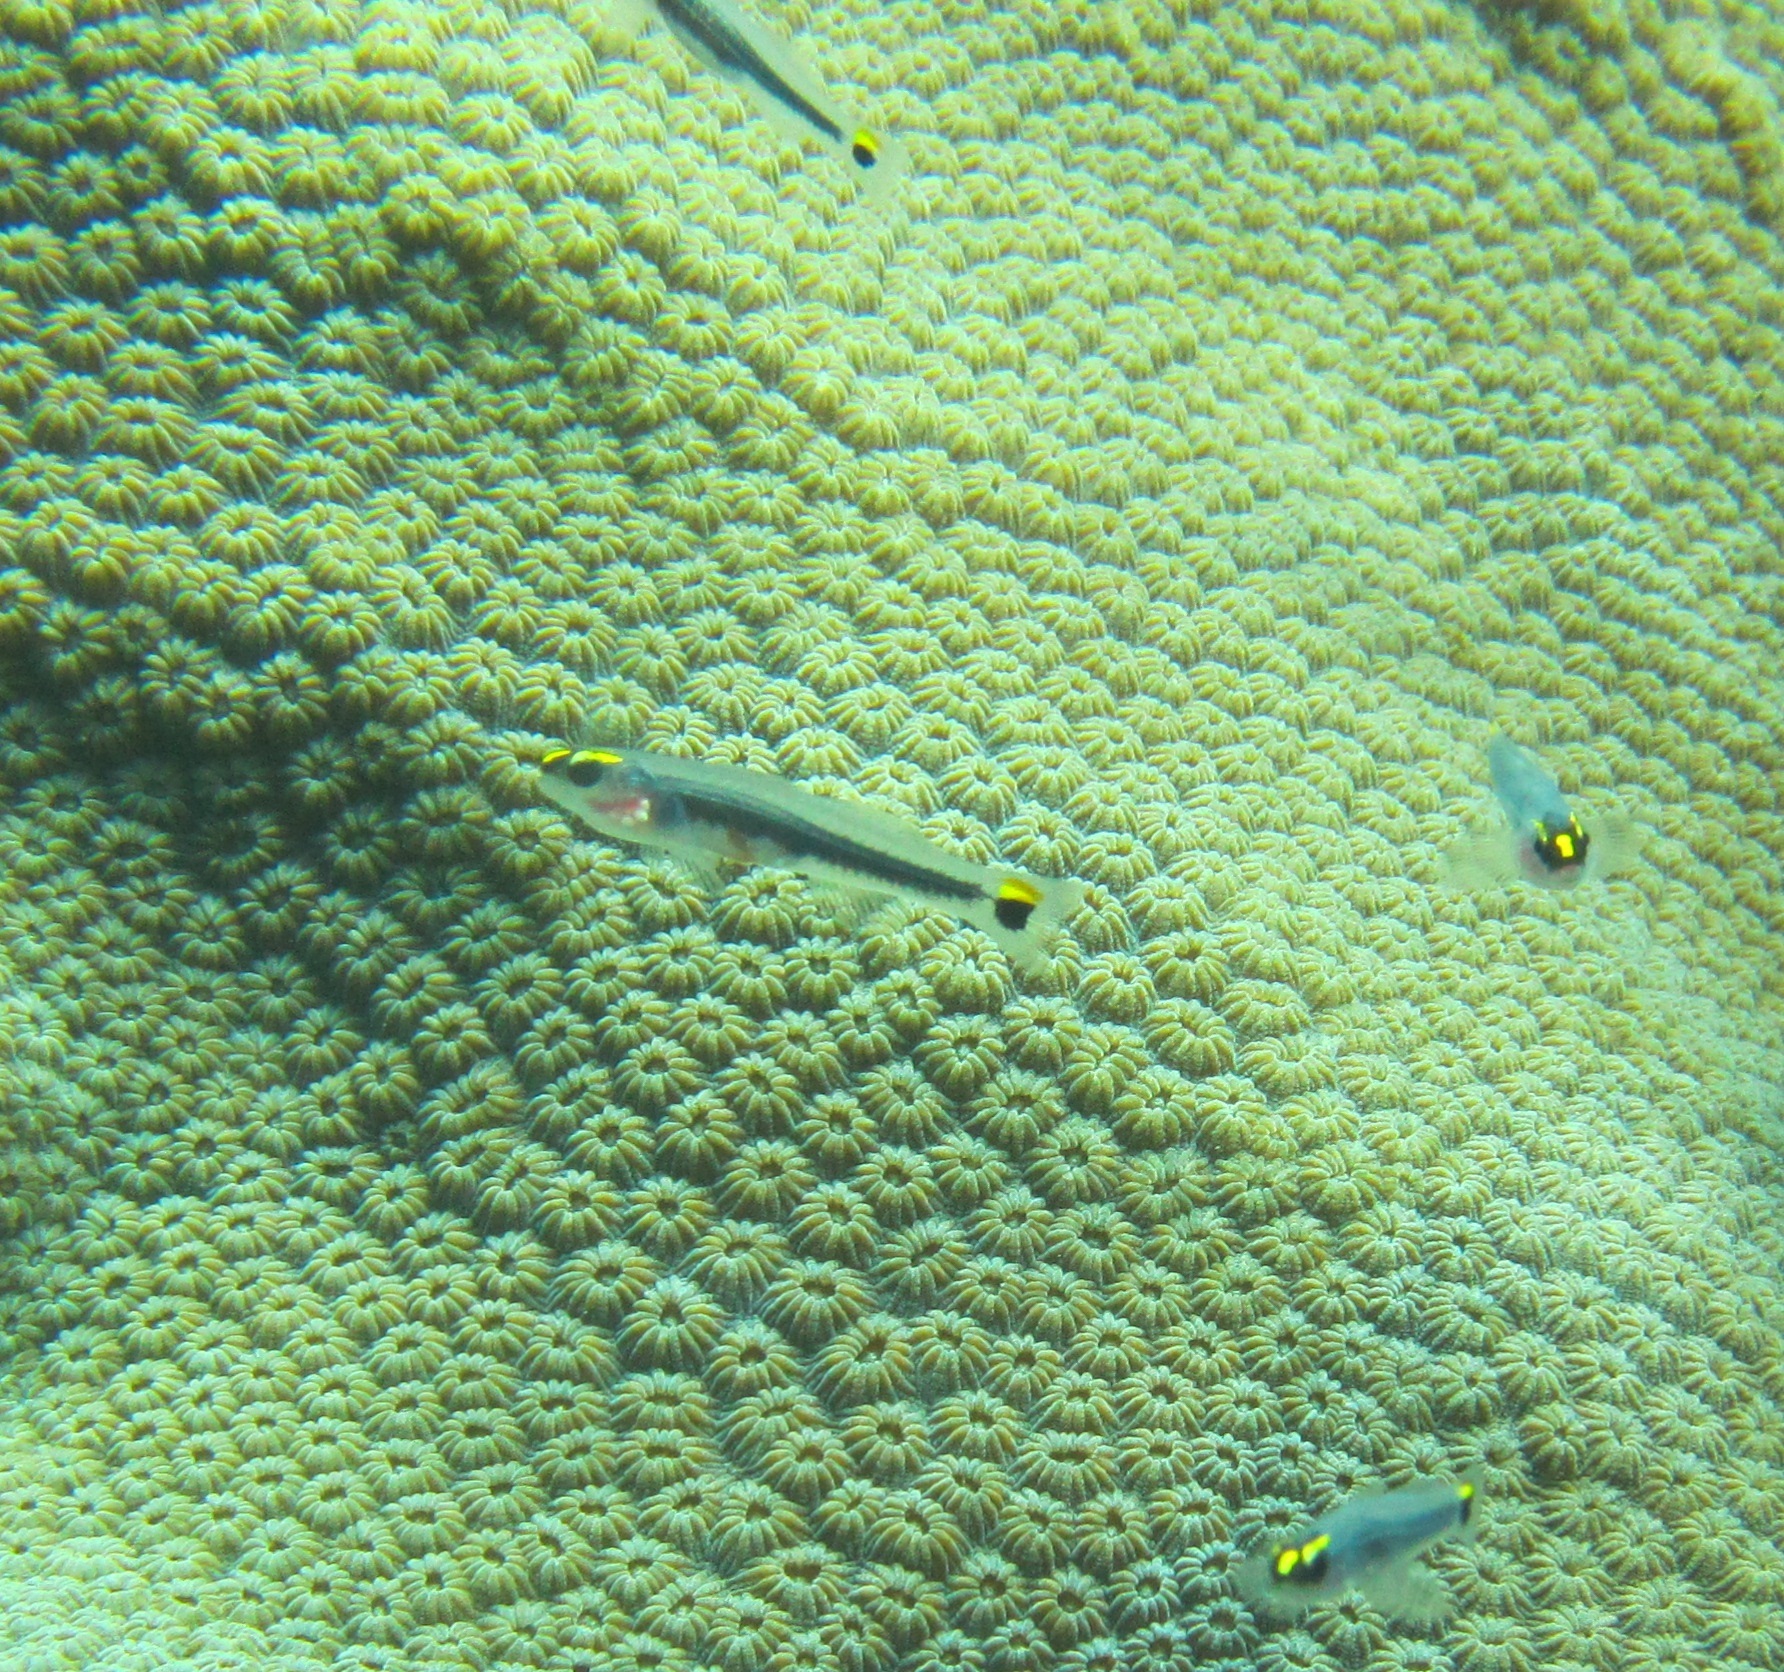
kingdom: Animalia
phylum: Chordata
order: Perciformes
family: Gobiidae
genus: Elacatinus
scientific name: Elacatinus jarocho
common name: Jarocho goby
